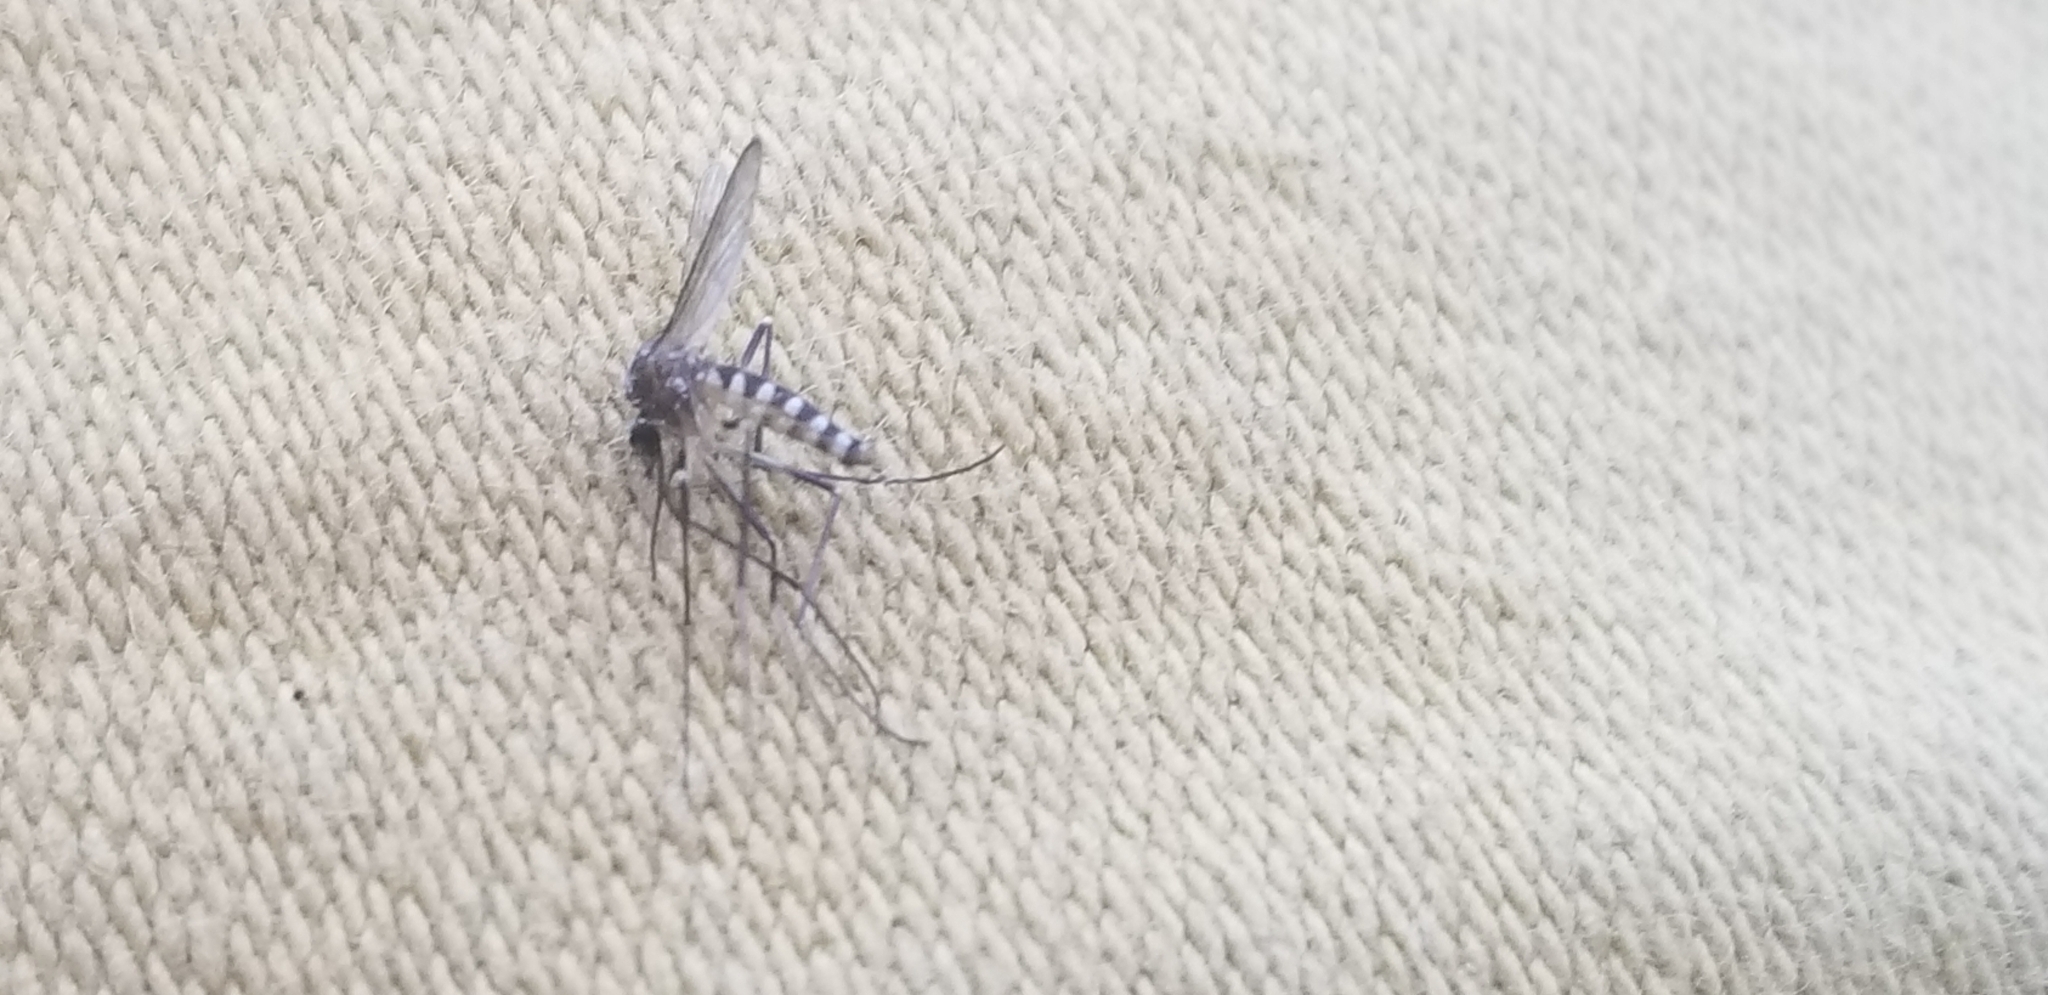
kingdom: Animalia
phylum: Arthropoda
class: Insecta
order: Diptera
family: Culicidae
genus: Aedes
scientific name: Aedes albopictus
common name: Tiger mosquito
